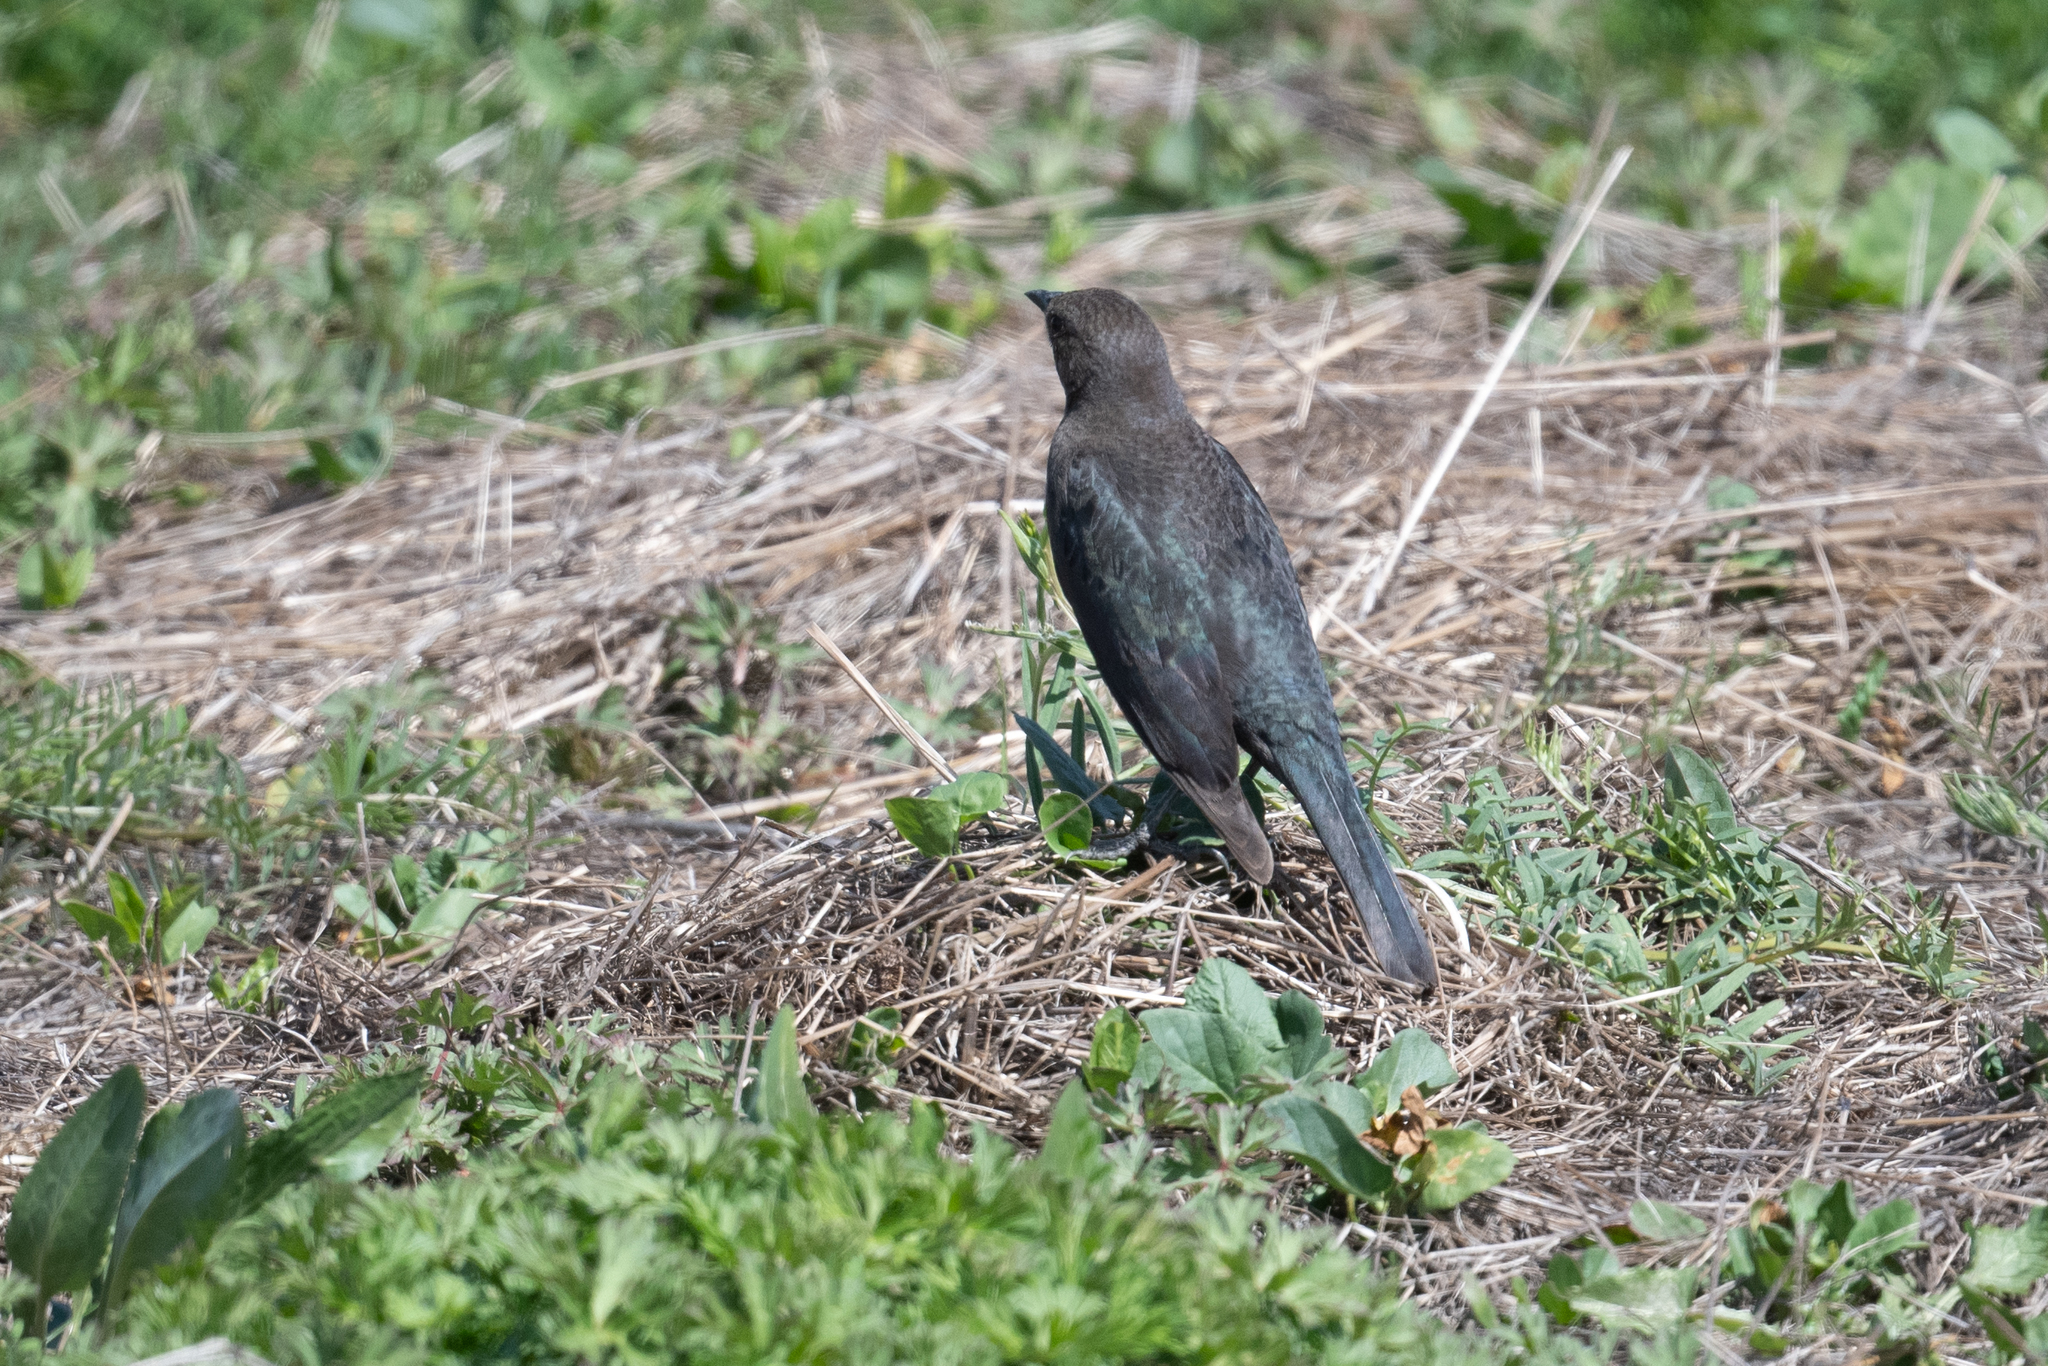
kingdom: Animalia
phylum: Chordata
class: Aves
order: Passeriformes
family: Icteridae
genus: Euphagus
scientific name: Euphagus cyanocephalus
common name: Brewer's blackbird
